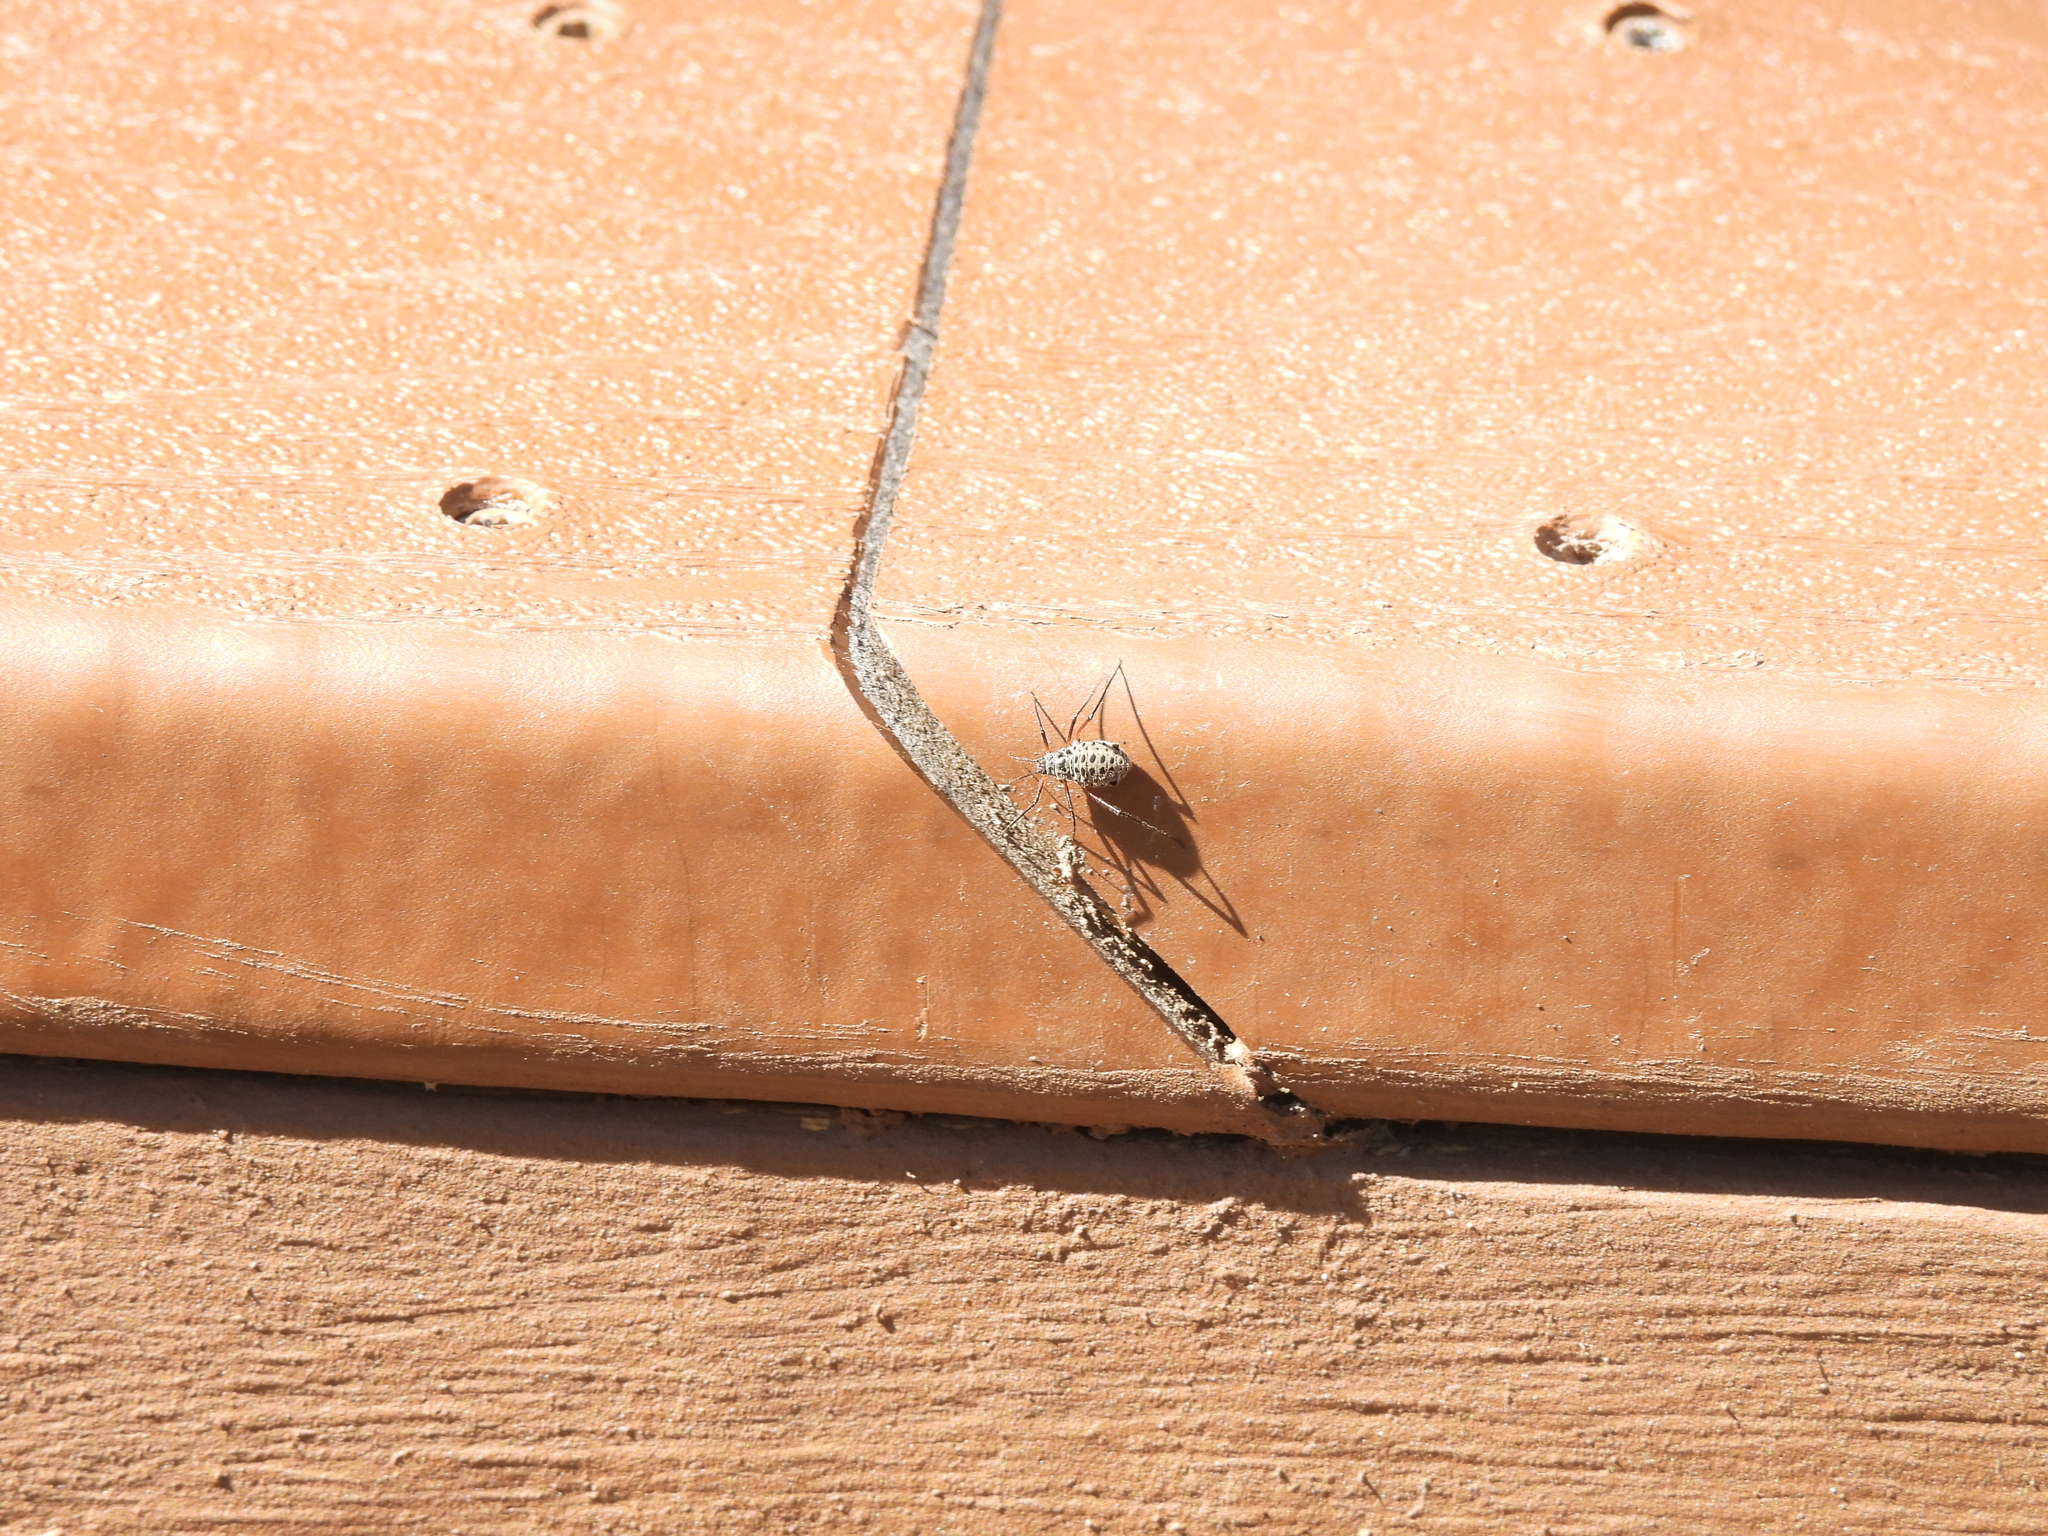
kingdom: Animalia
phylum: Arthropoda
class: Insecta
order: Hemiptera
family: Aphididae
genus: Longistigma
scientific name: Longistigma caryae
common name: Giant bark aphid
